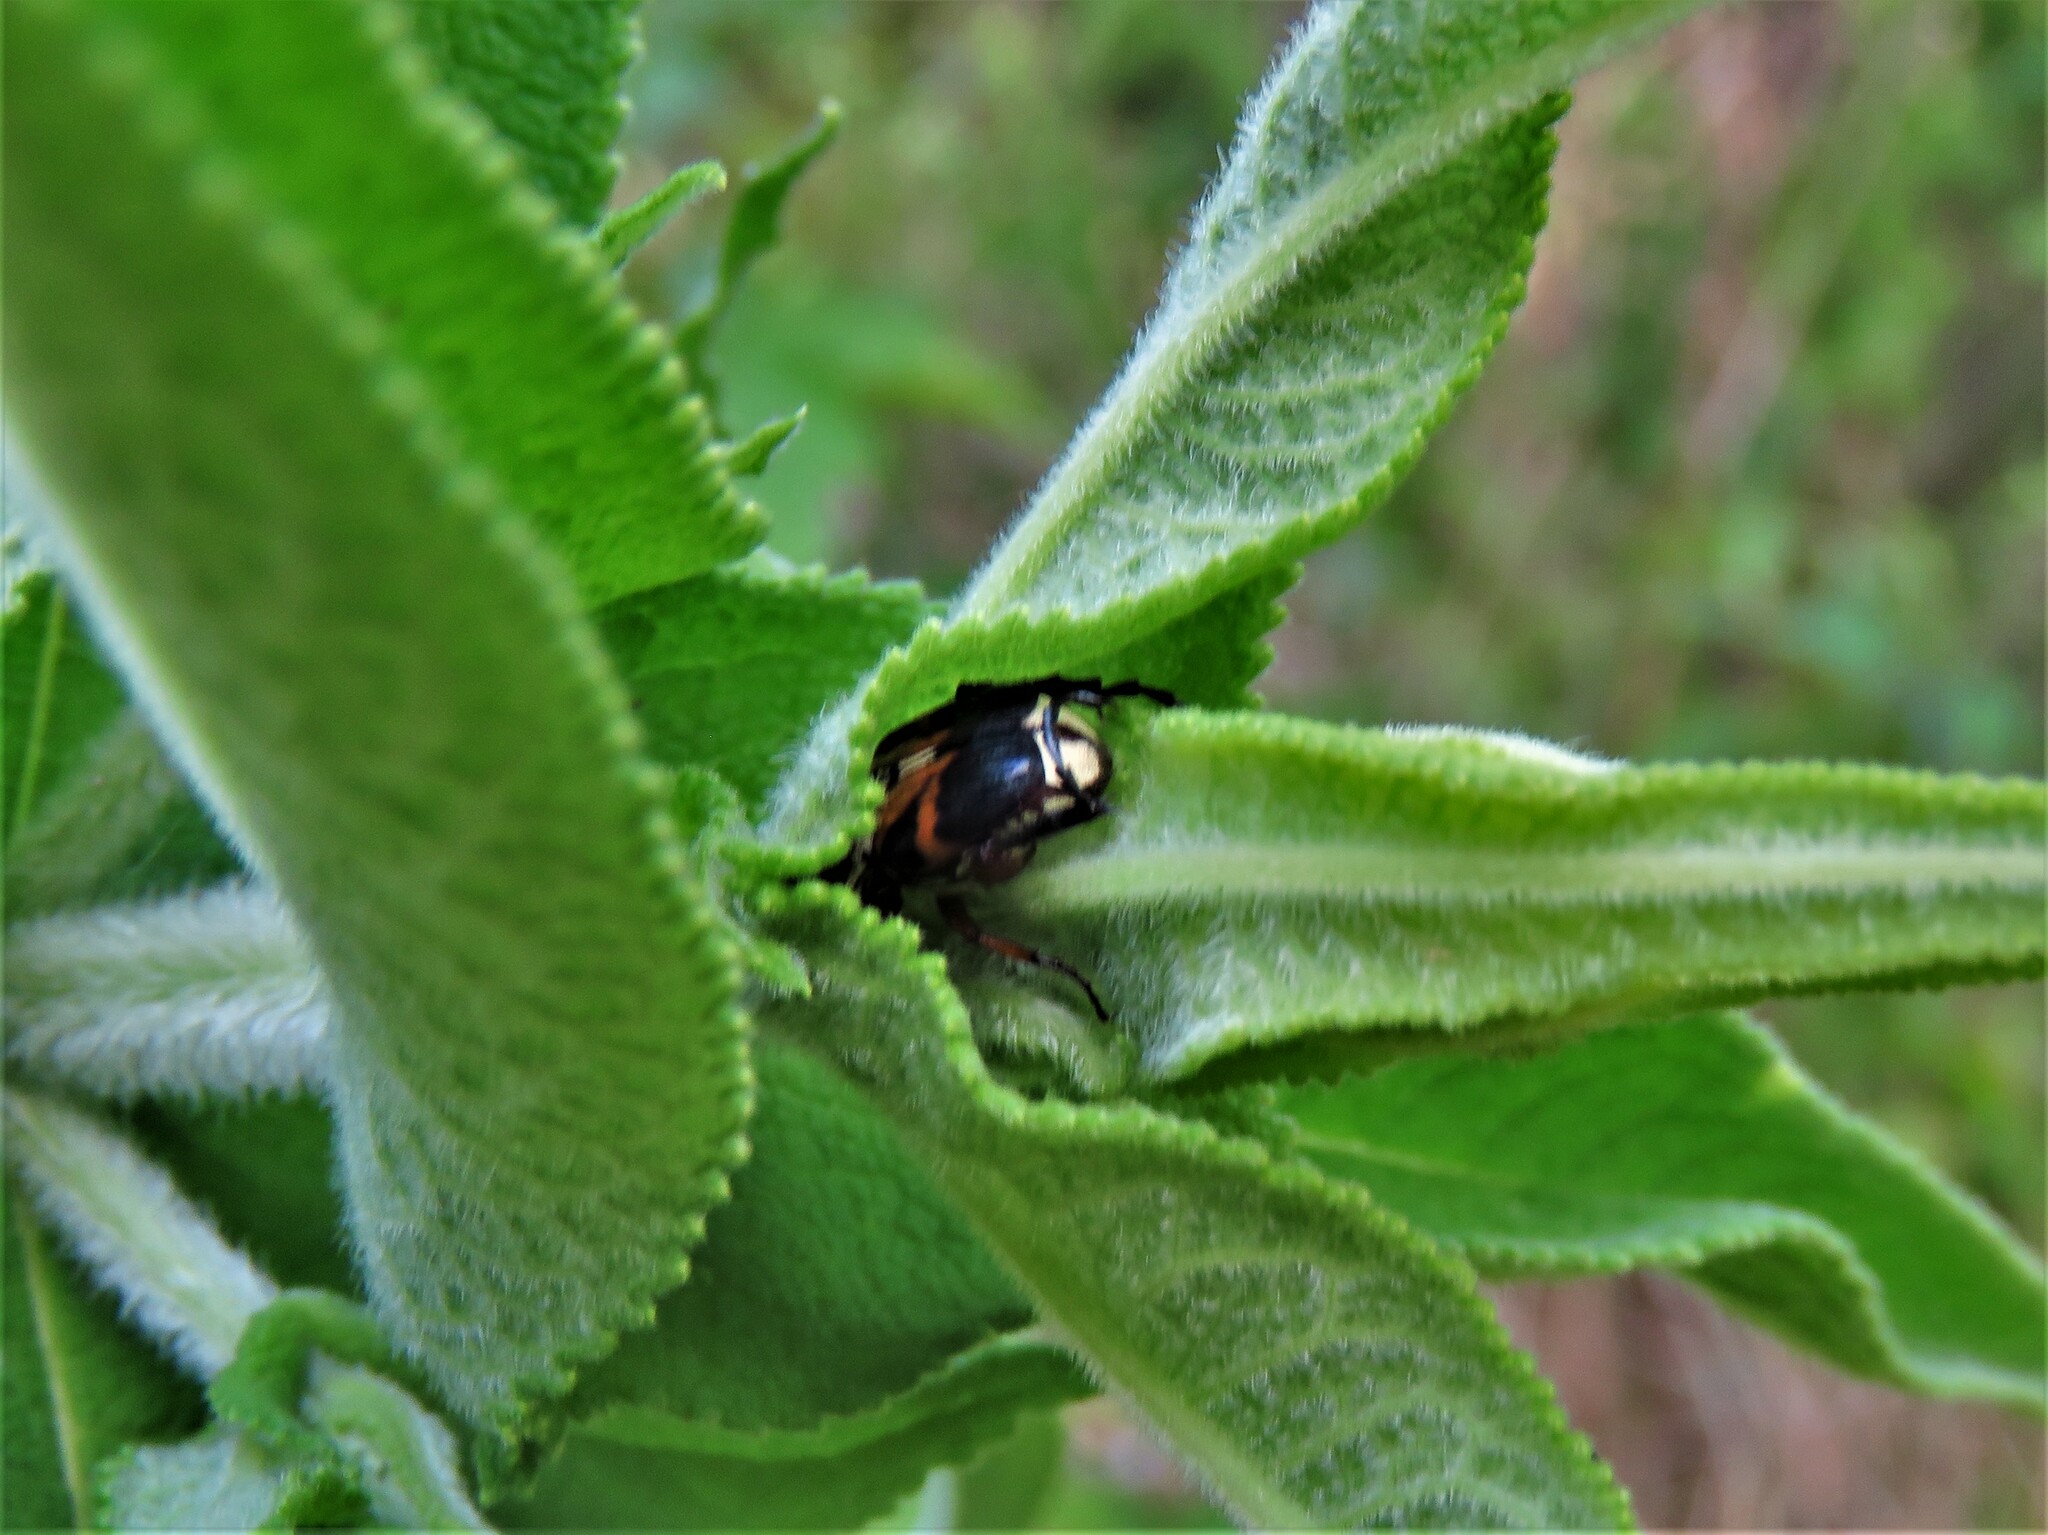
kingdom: Animalia
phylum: Arthropoda
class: Insecta
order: Coleoptera
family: Scarabaeidae
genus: Trigonopeltastes
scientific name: Trigonopeltastes delta
